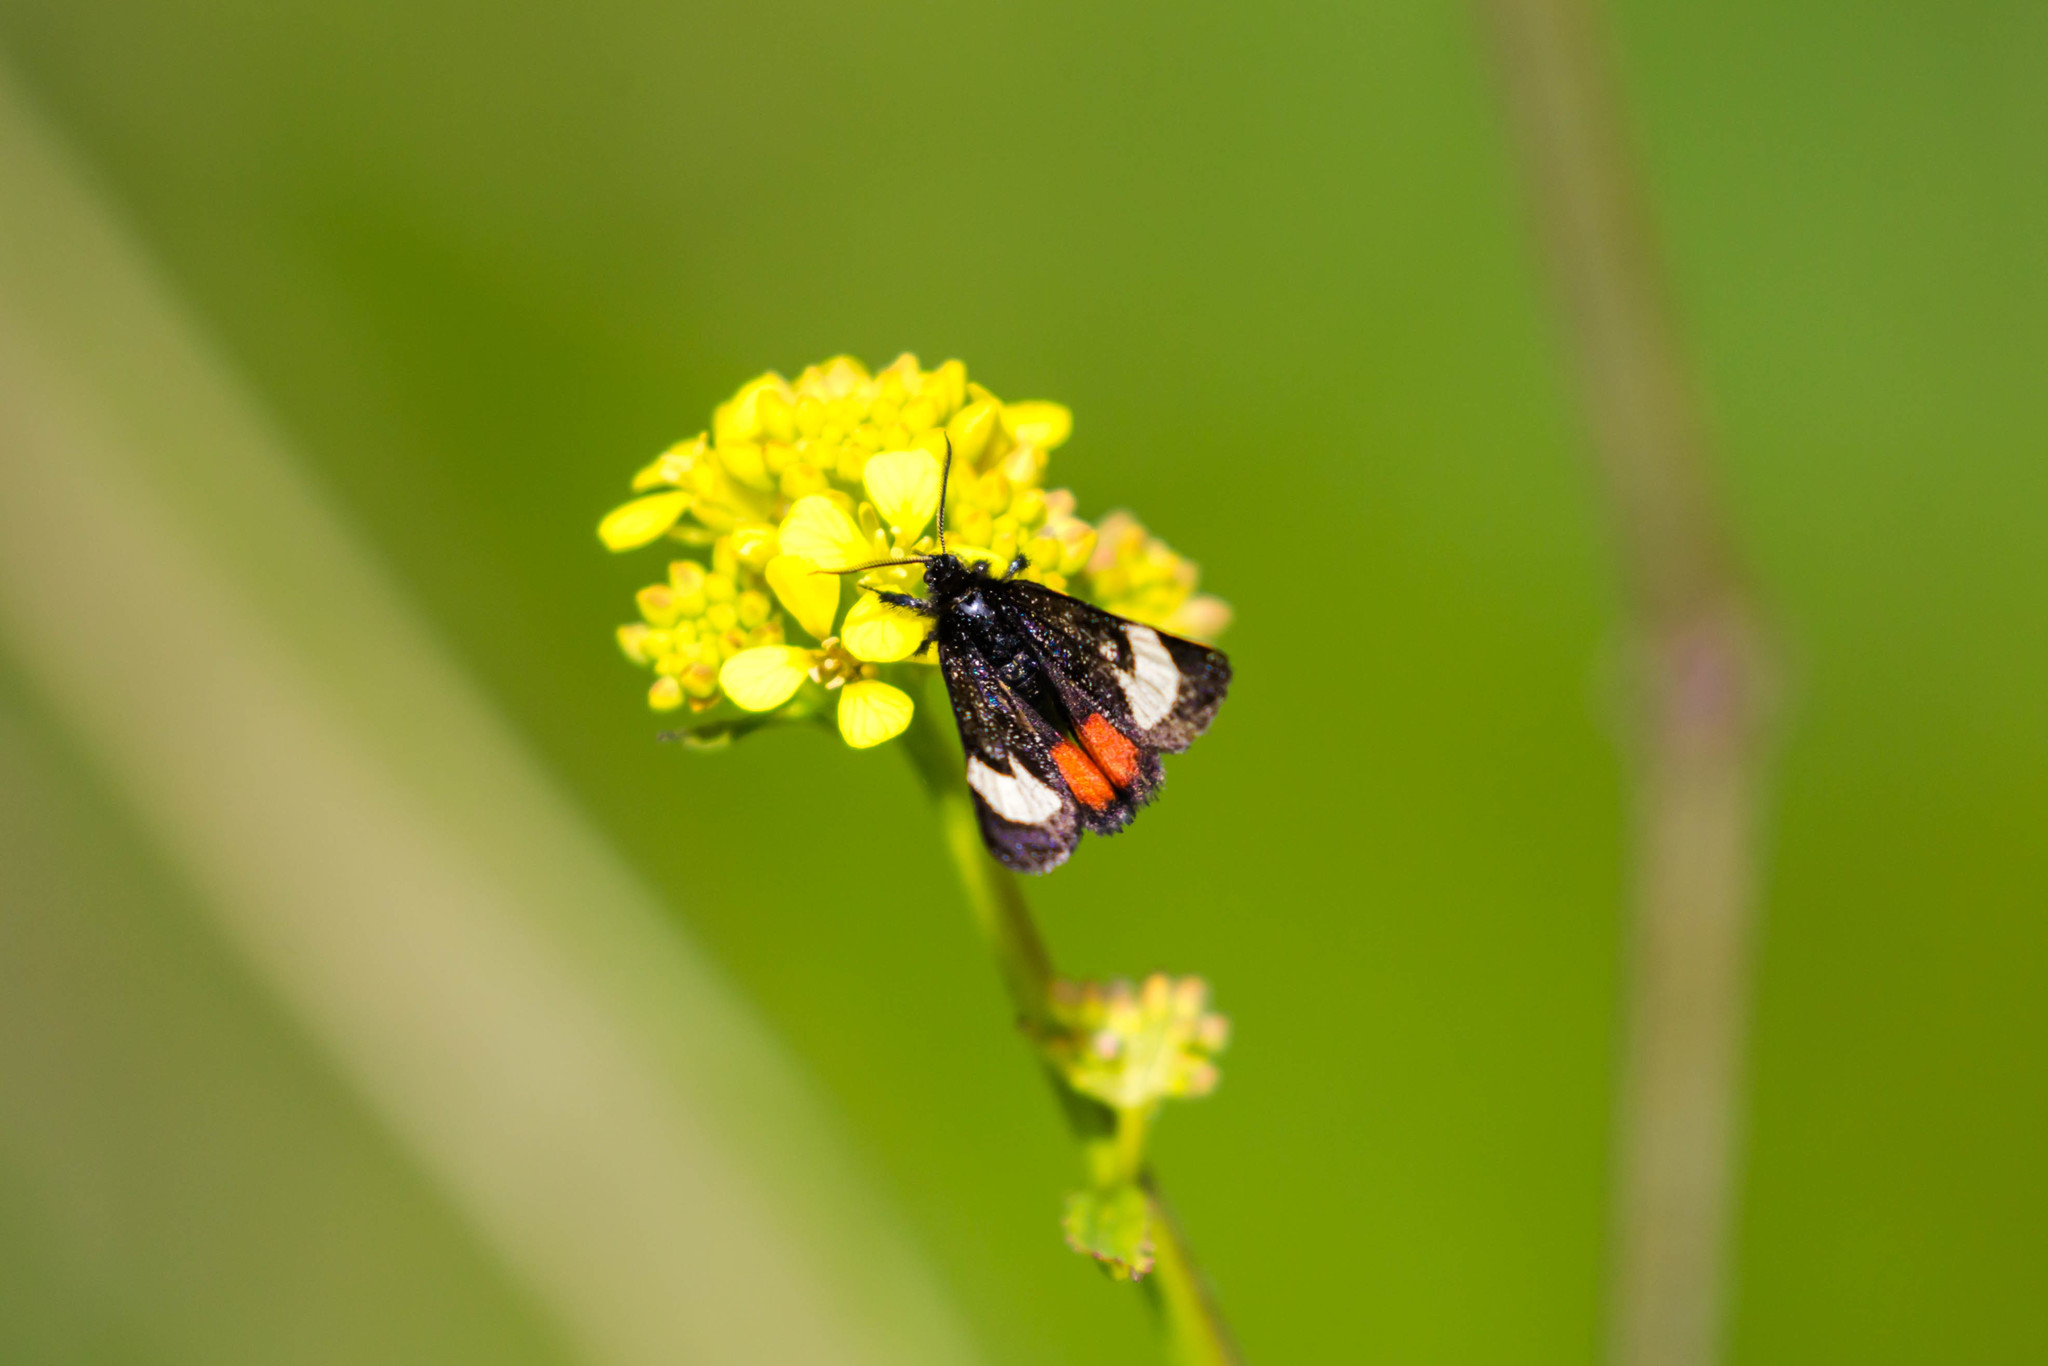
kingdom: Animalia
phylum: Arthropoda
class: Insecta
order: Lepidoptera
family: Noctuidae
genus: Psychomorpha
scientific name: Psychomorpha epimenis
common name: Grapevine epimenis moth
